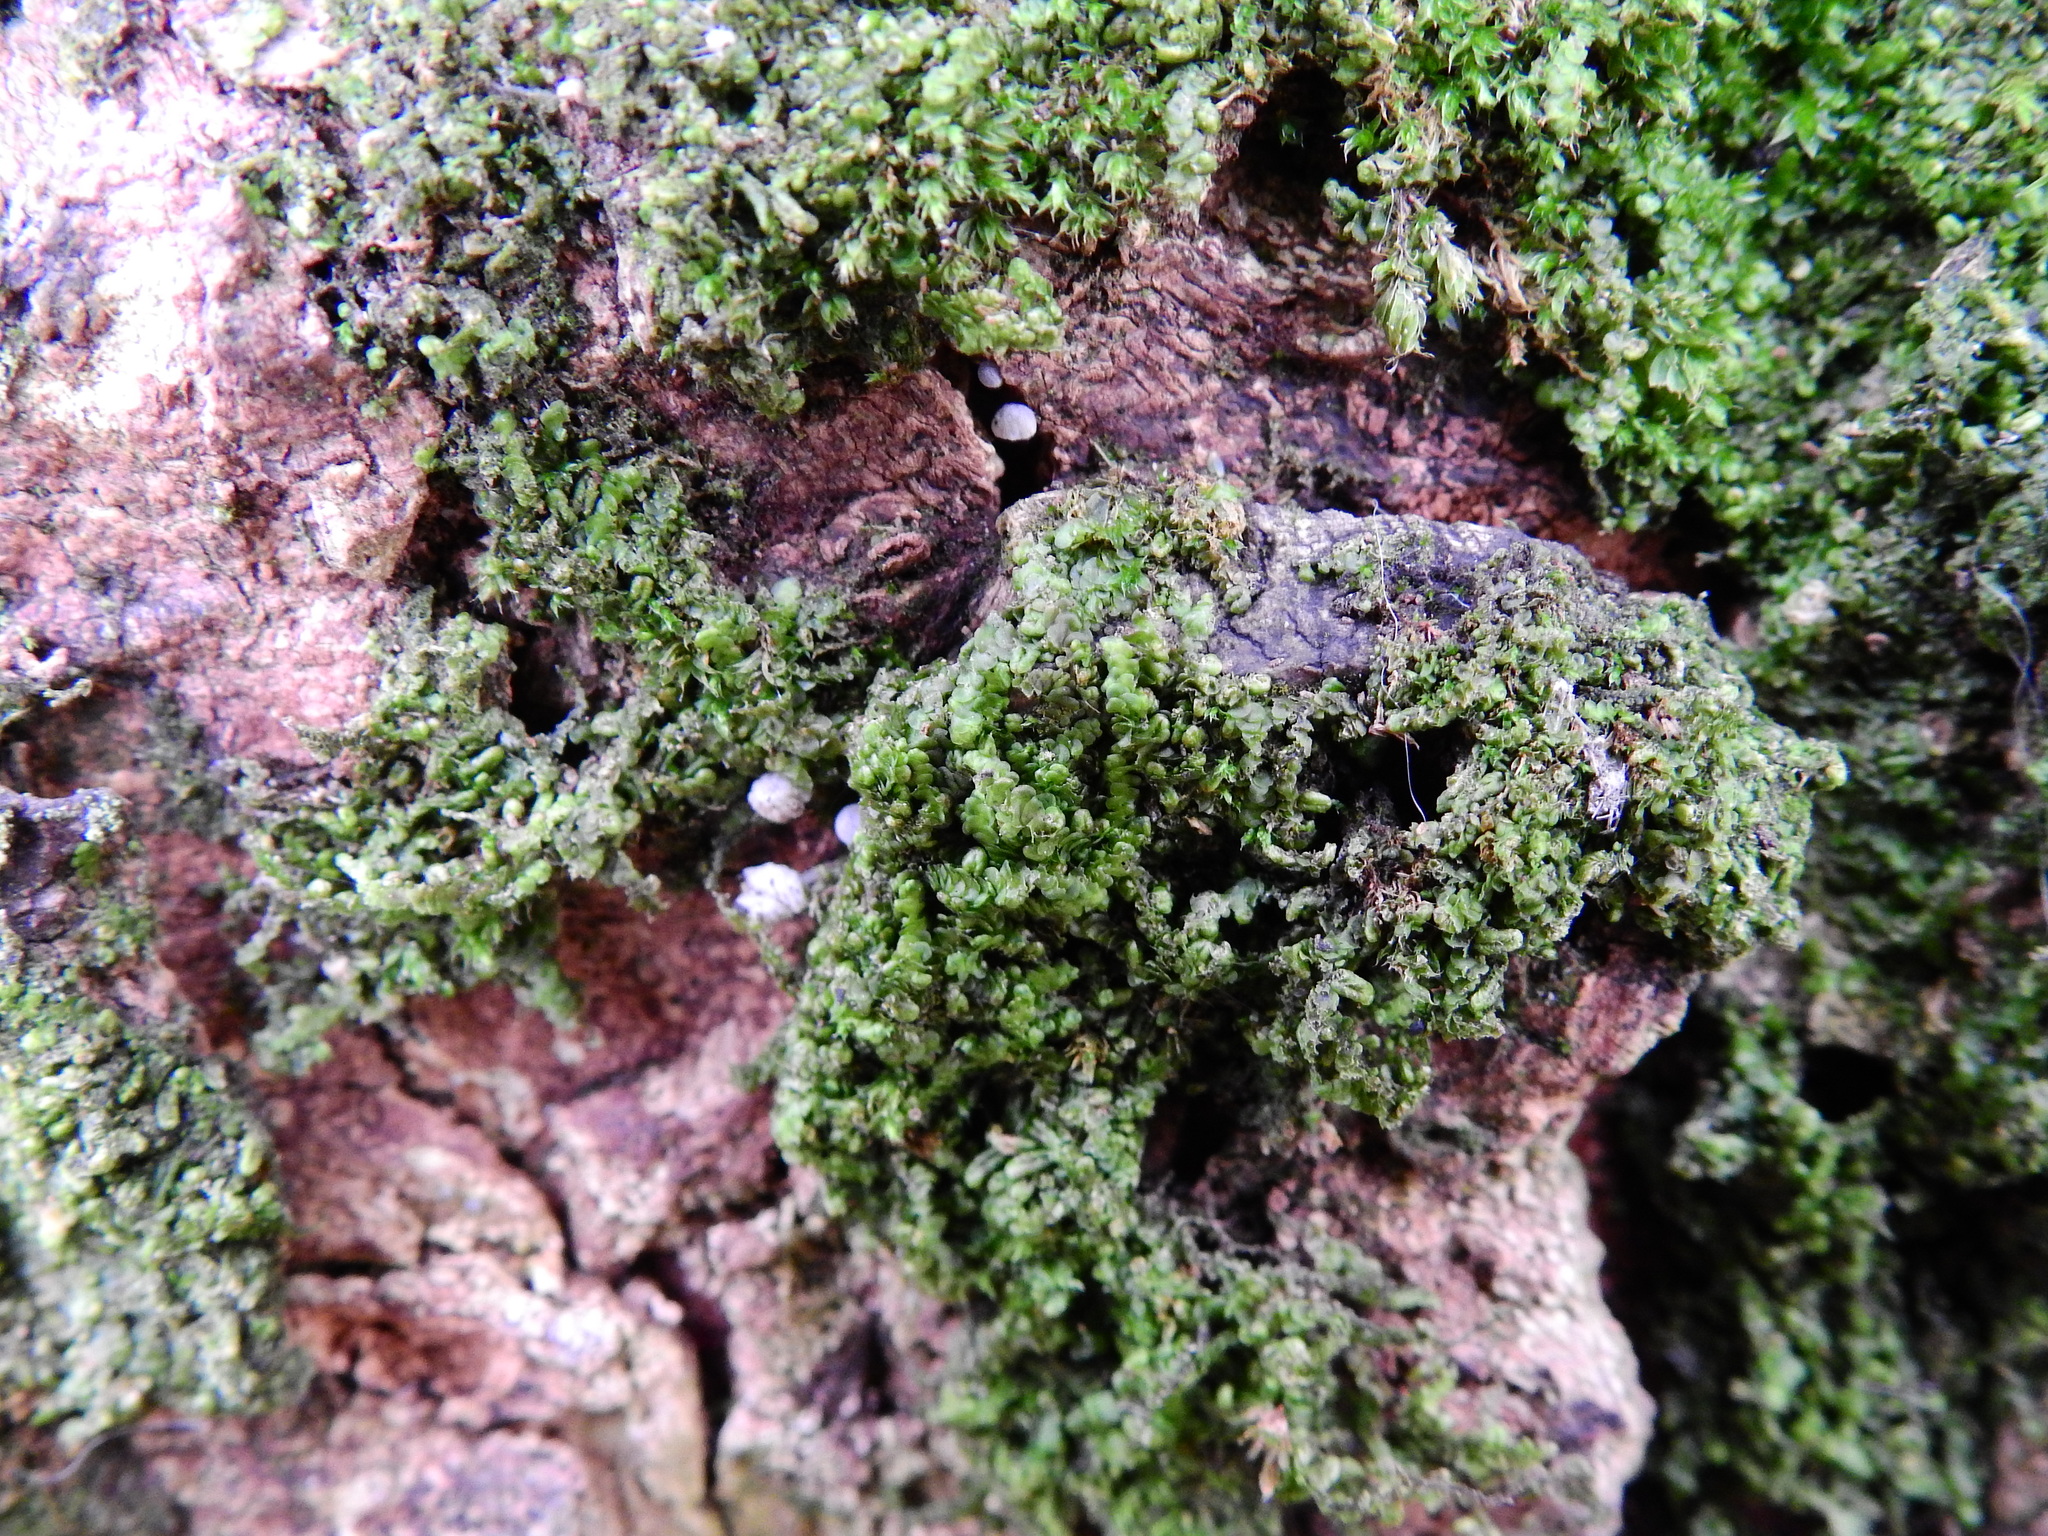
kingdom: Plantae
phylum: Marchantiophyta
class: Jungermanniopsida
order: Porellales
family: Frullaniaceae
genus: Frullania
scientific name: Frullania dilatata
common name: Dilated scalewort
